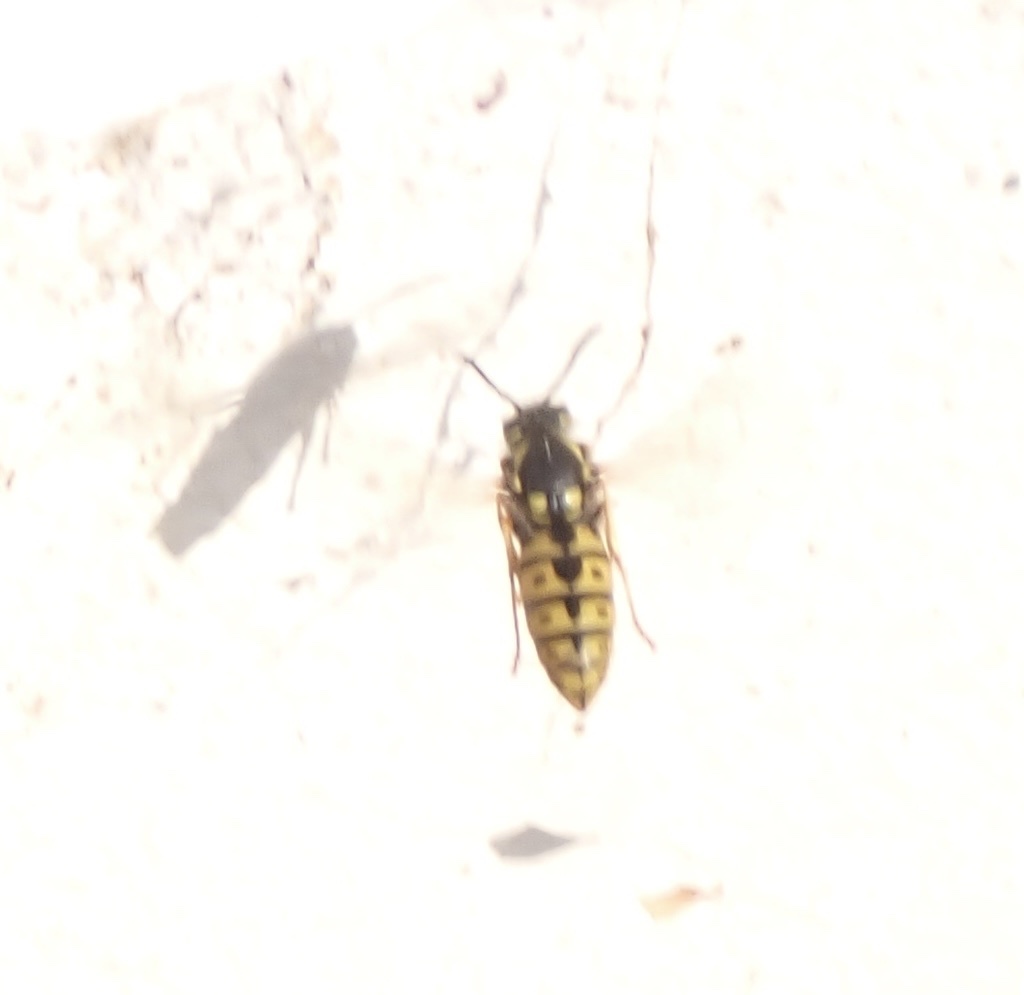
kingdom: Animalia
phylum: Arthropoda
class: Insecta
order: Hymenoptera
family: Vespidae
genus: Vespula
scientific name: Vespula germanica
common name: German wasp
